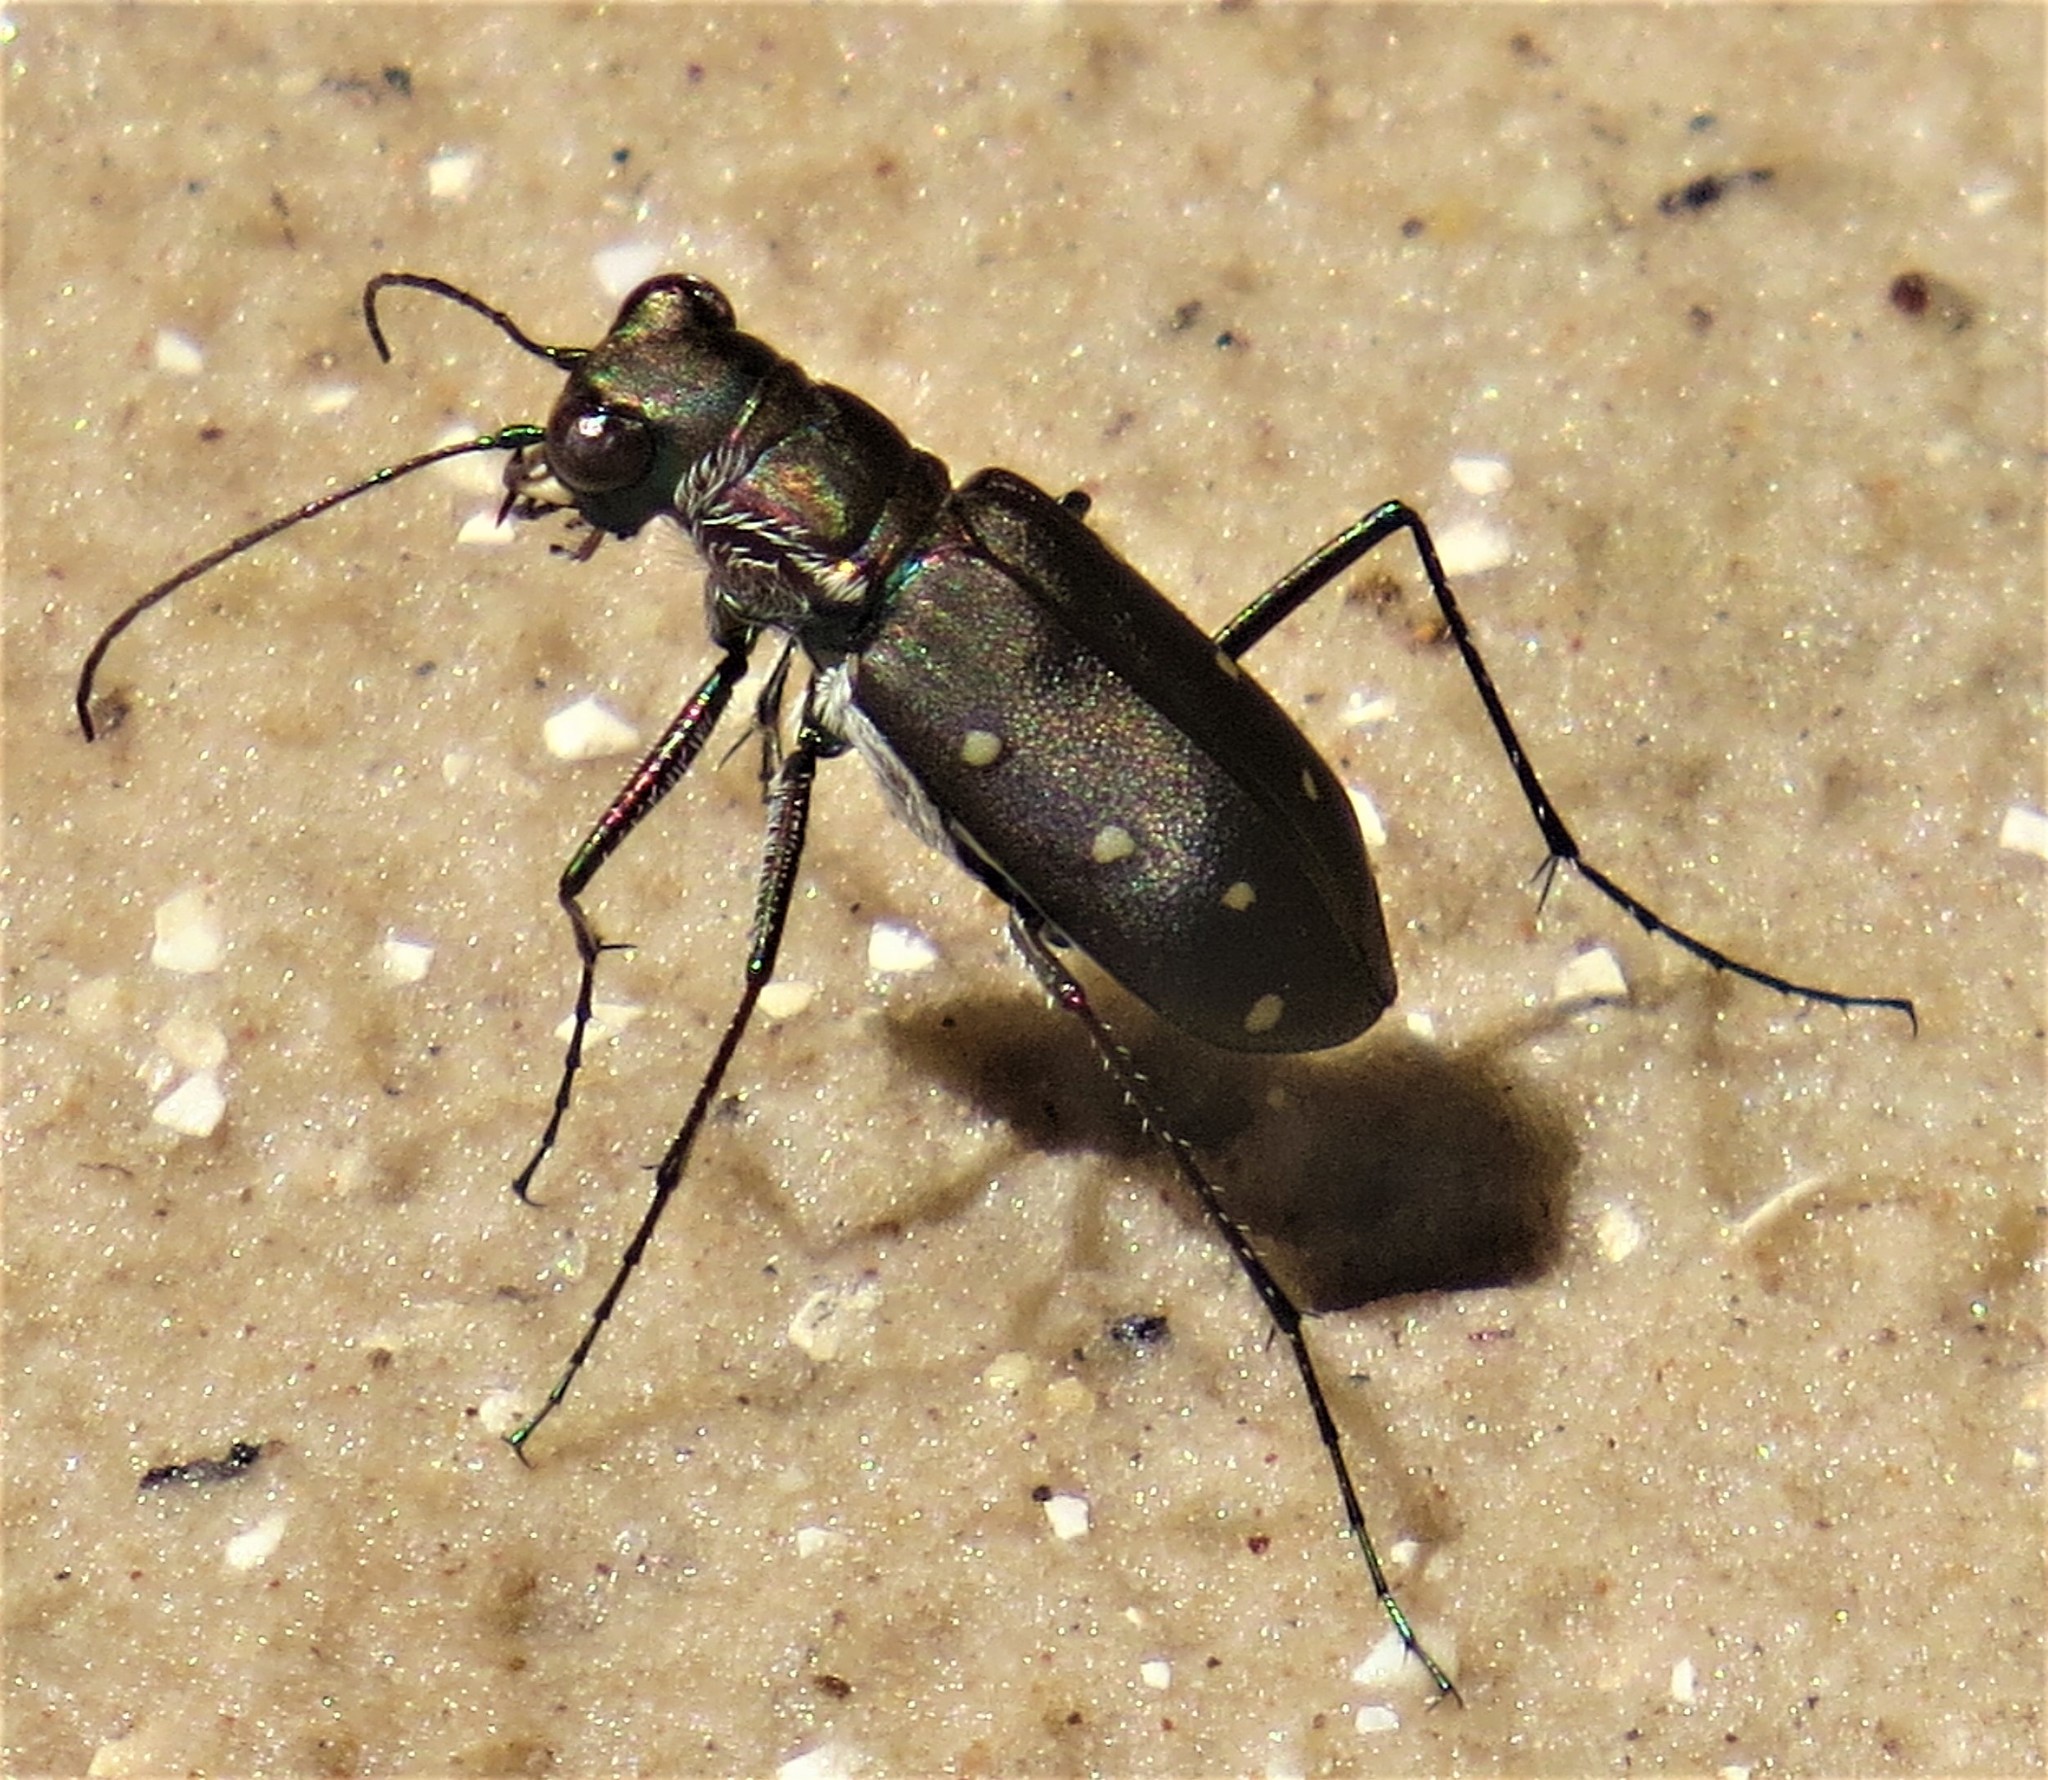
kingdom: Animalia
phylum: Arthropoda
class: Insecta
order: Coleoptera
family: Carabidae
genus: Cicindela
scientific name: Cicindela ocellata
